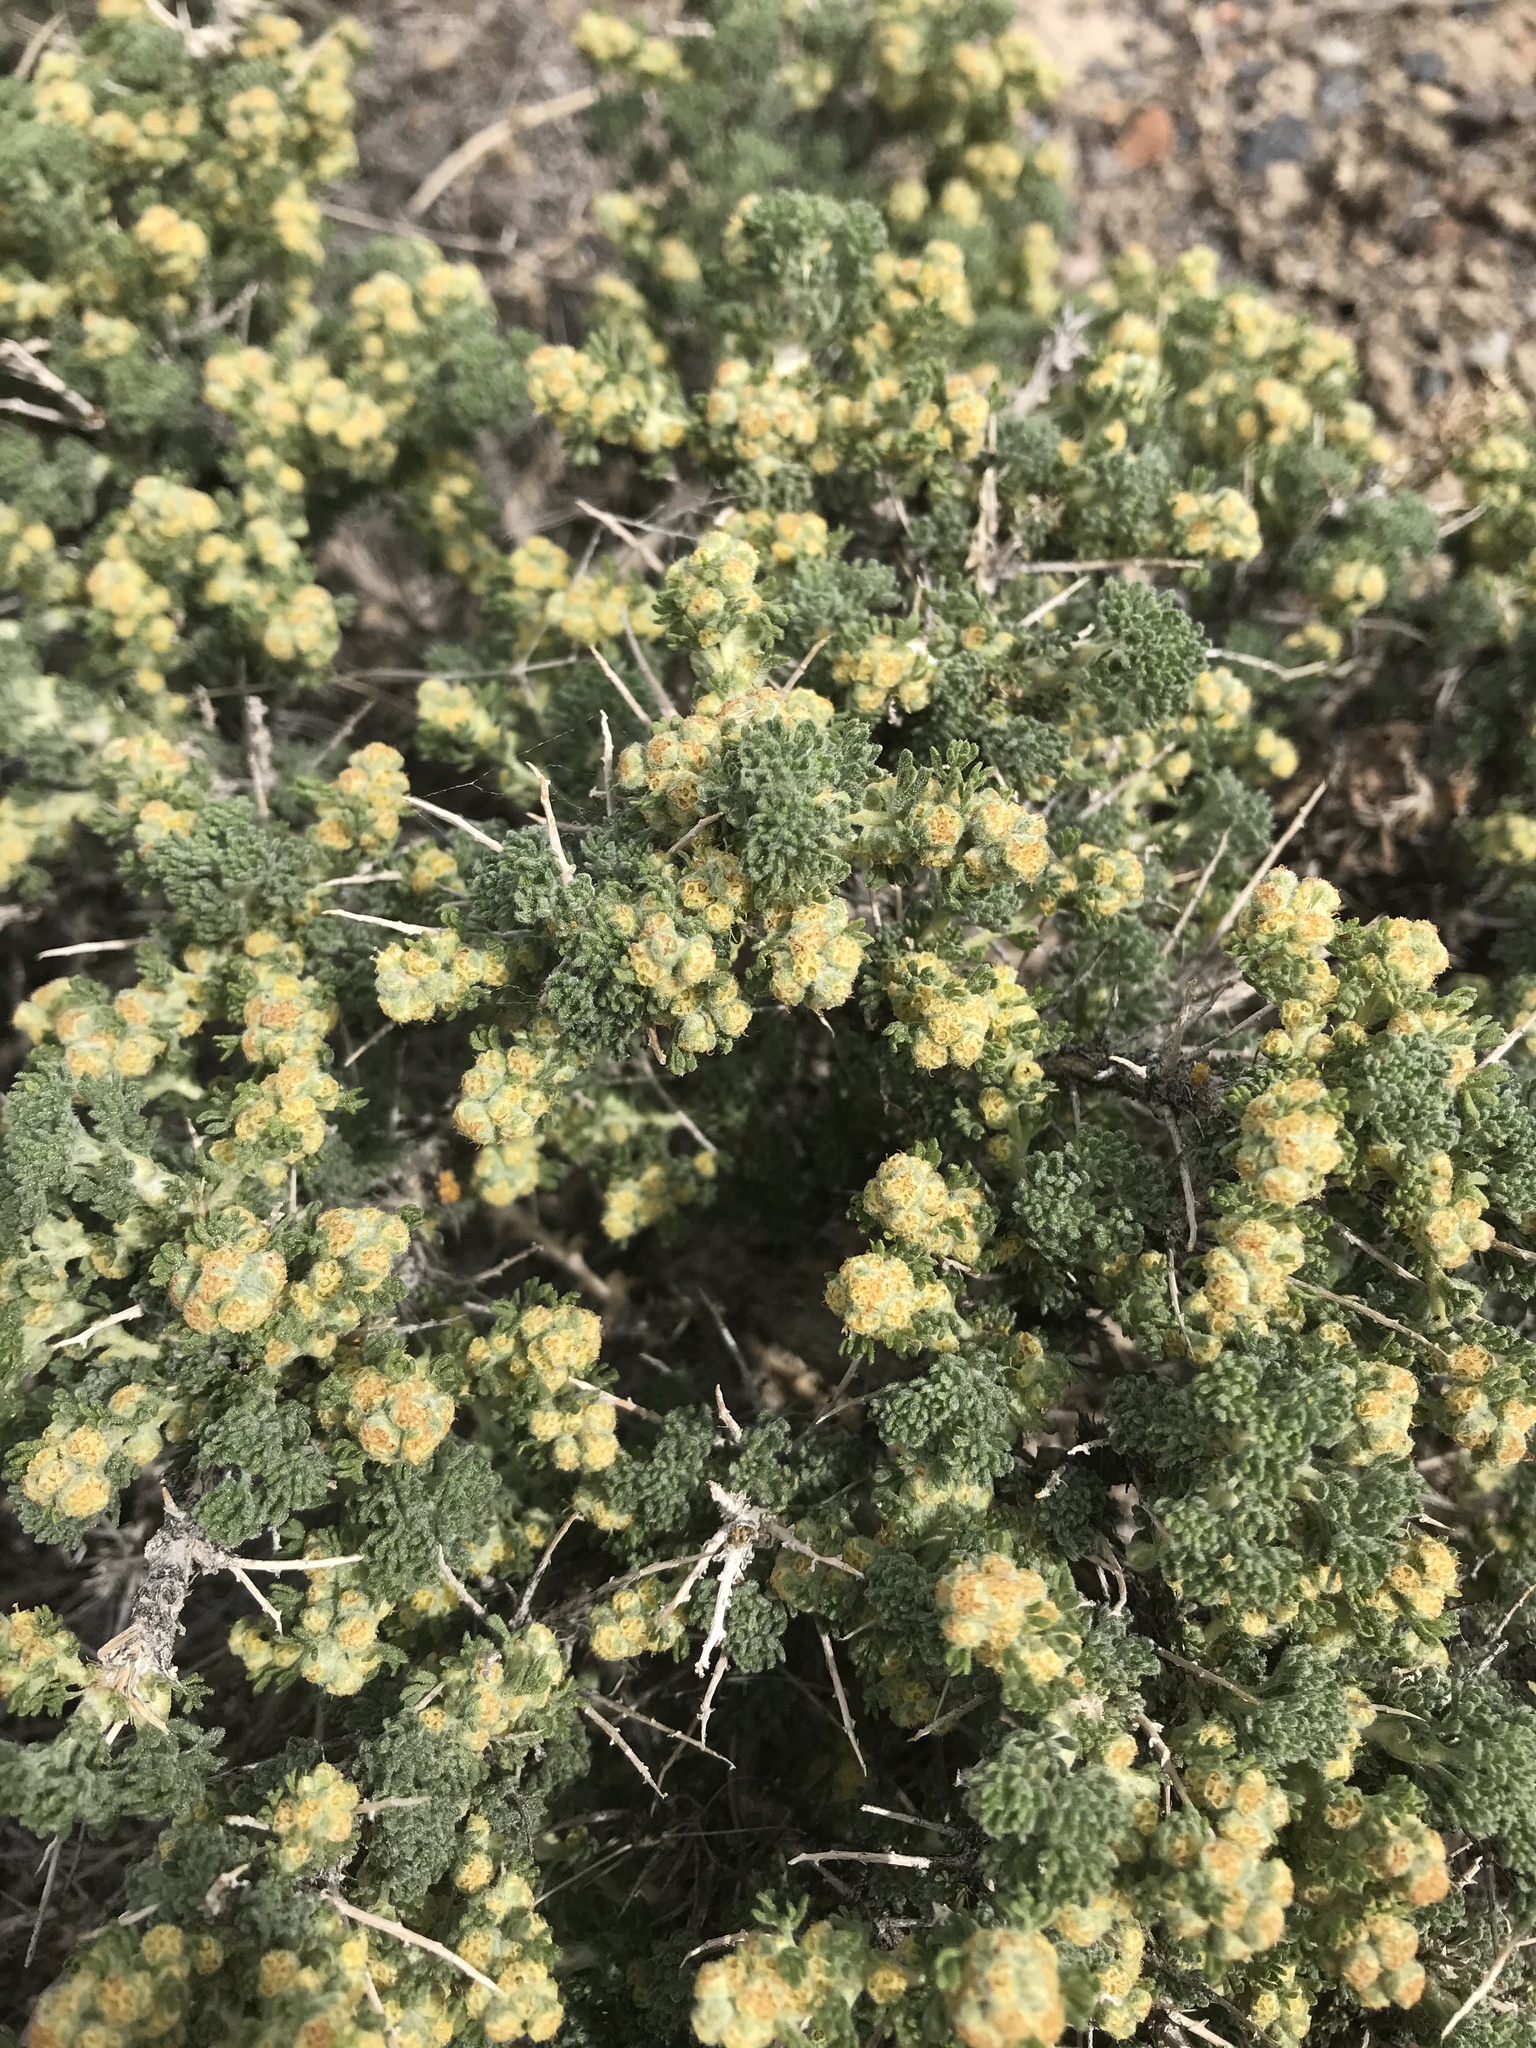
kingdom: Plantae
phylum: Tracheophyta
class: Magnoliopsida
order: Asterales
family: Asteraceae
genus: Artemisia
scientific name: Artemisia spinescens
